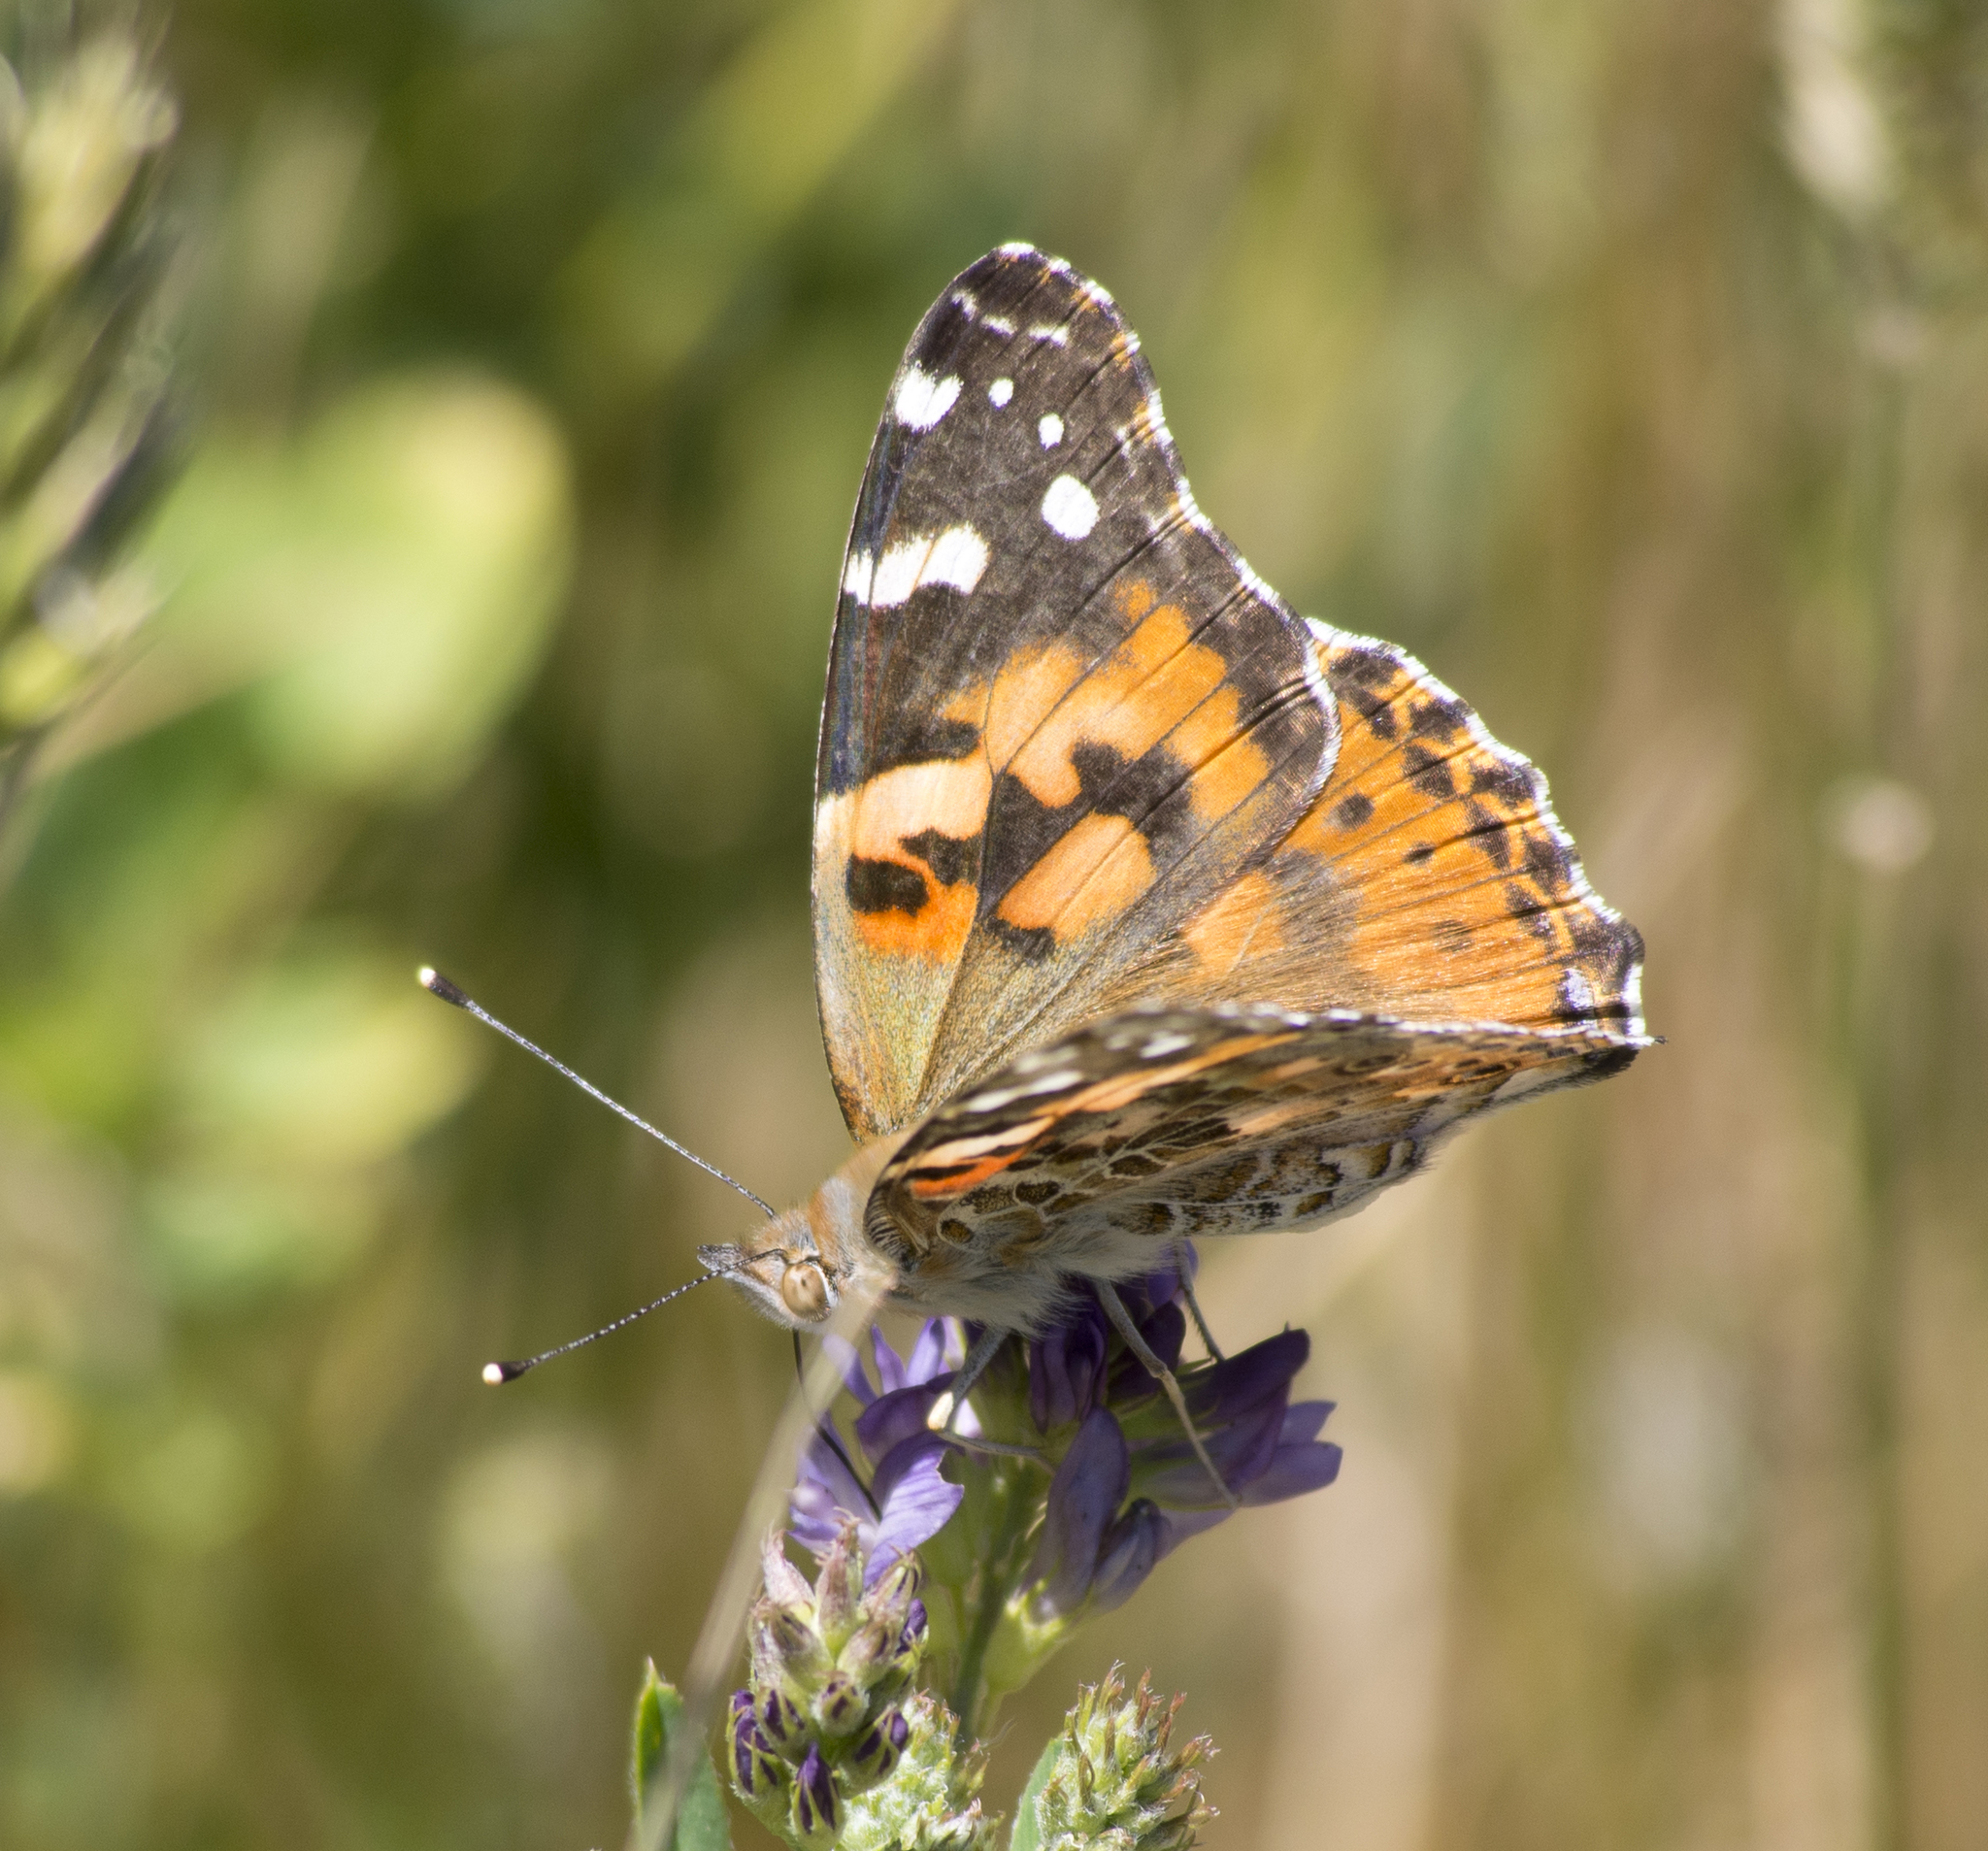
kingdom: Animalia
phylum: Arthropoda
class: Insecta
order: Lepidoptera
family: Nymphalidae
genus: Vanessa
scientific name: Vanessa cardui
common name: Painted lady
